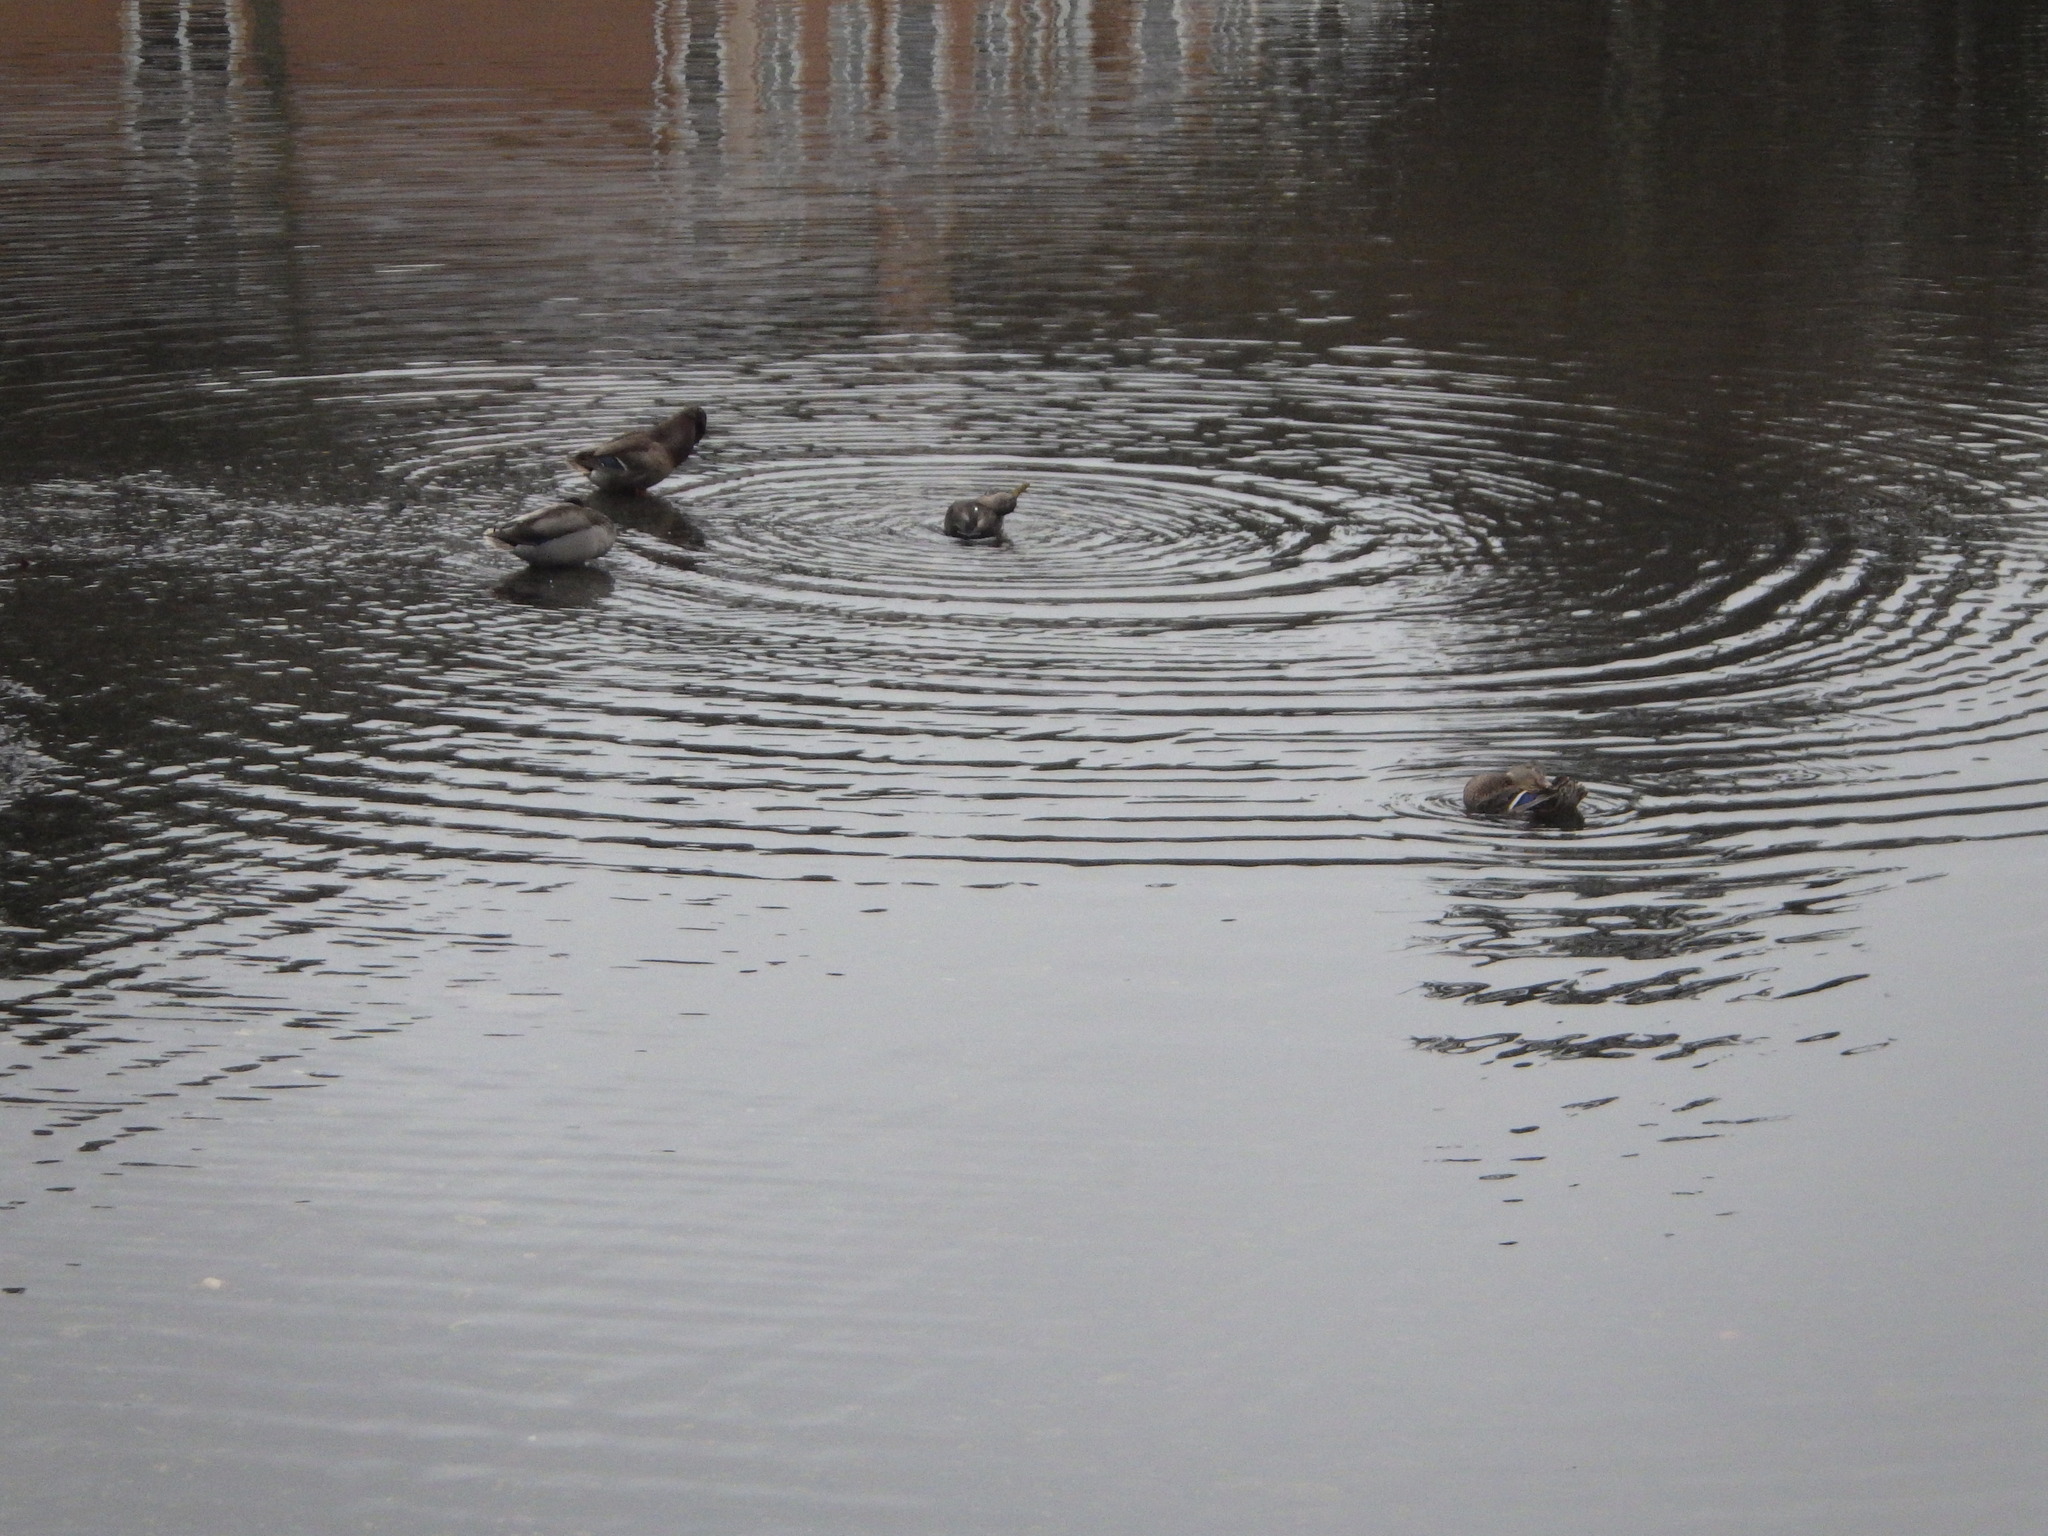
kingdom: Animalia
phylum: Chordata
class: Aves
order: Anseriformes
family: Anatidae
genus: Anas
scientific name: Anas platyrhynchos
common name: Mallard
